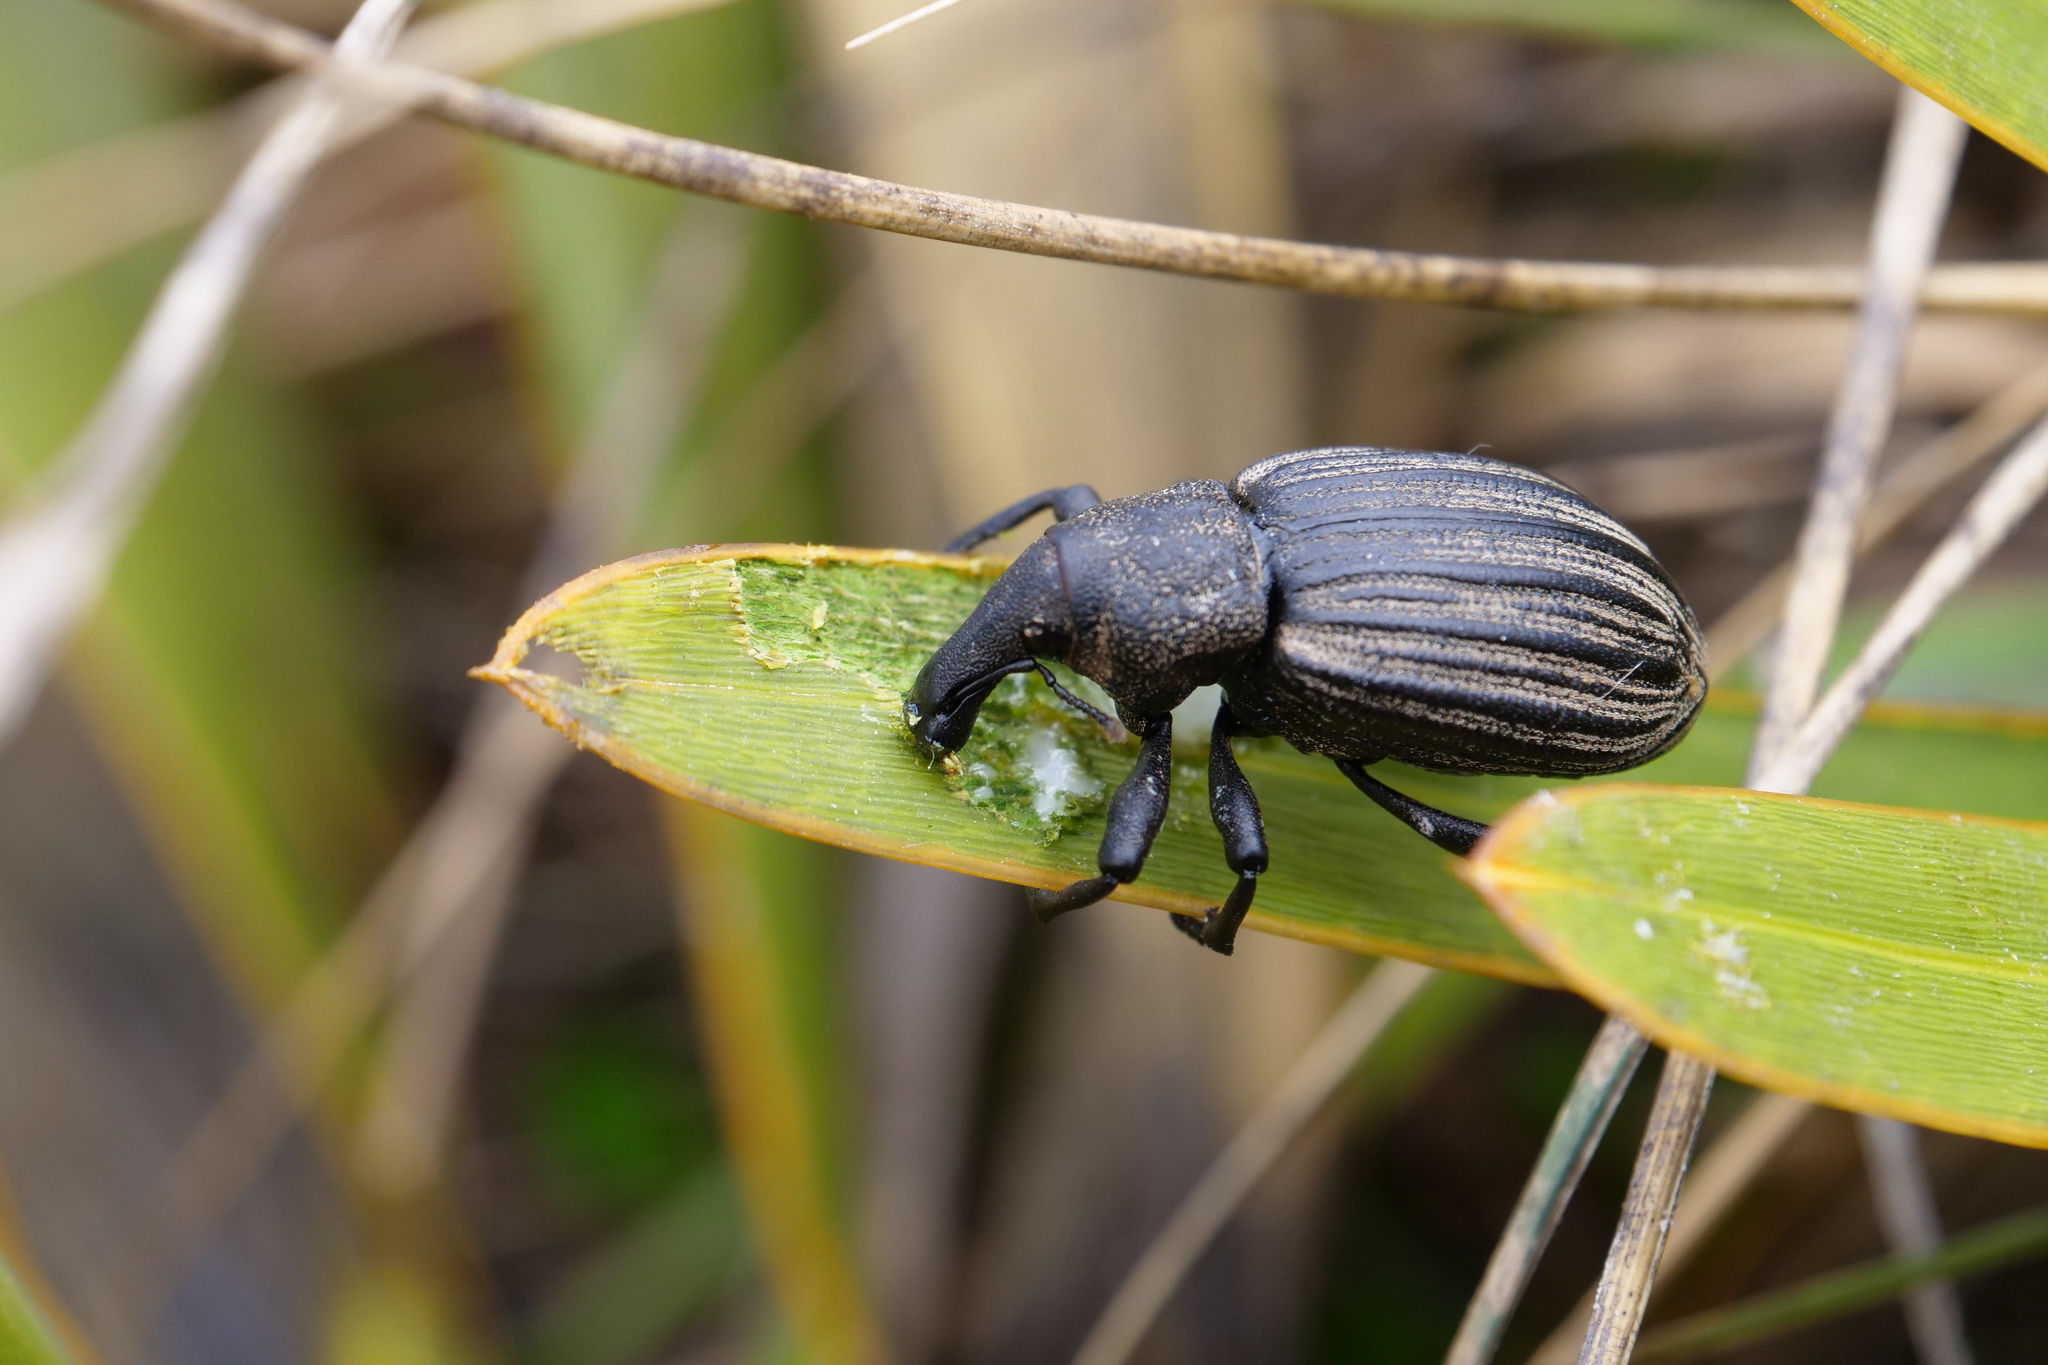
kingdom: Animalia
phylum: Arthropoda
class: Insecta
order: Coleoptera
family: Curculionidae
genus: Lyperobius
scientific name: Lyperobius cupiendus
